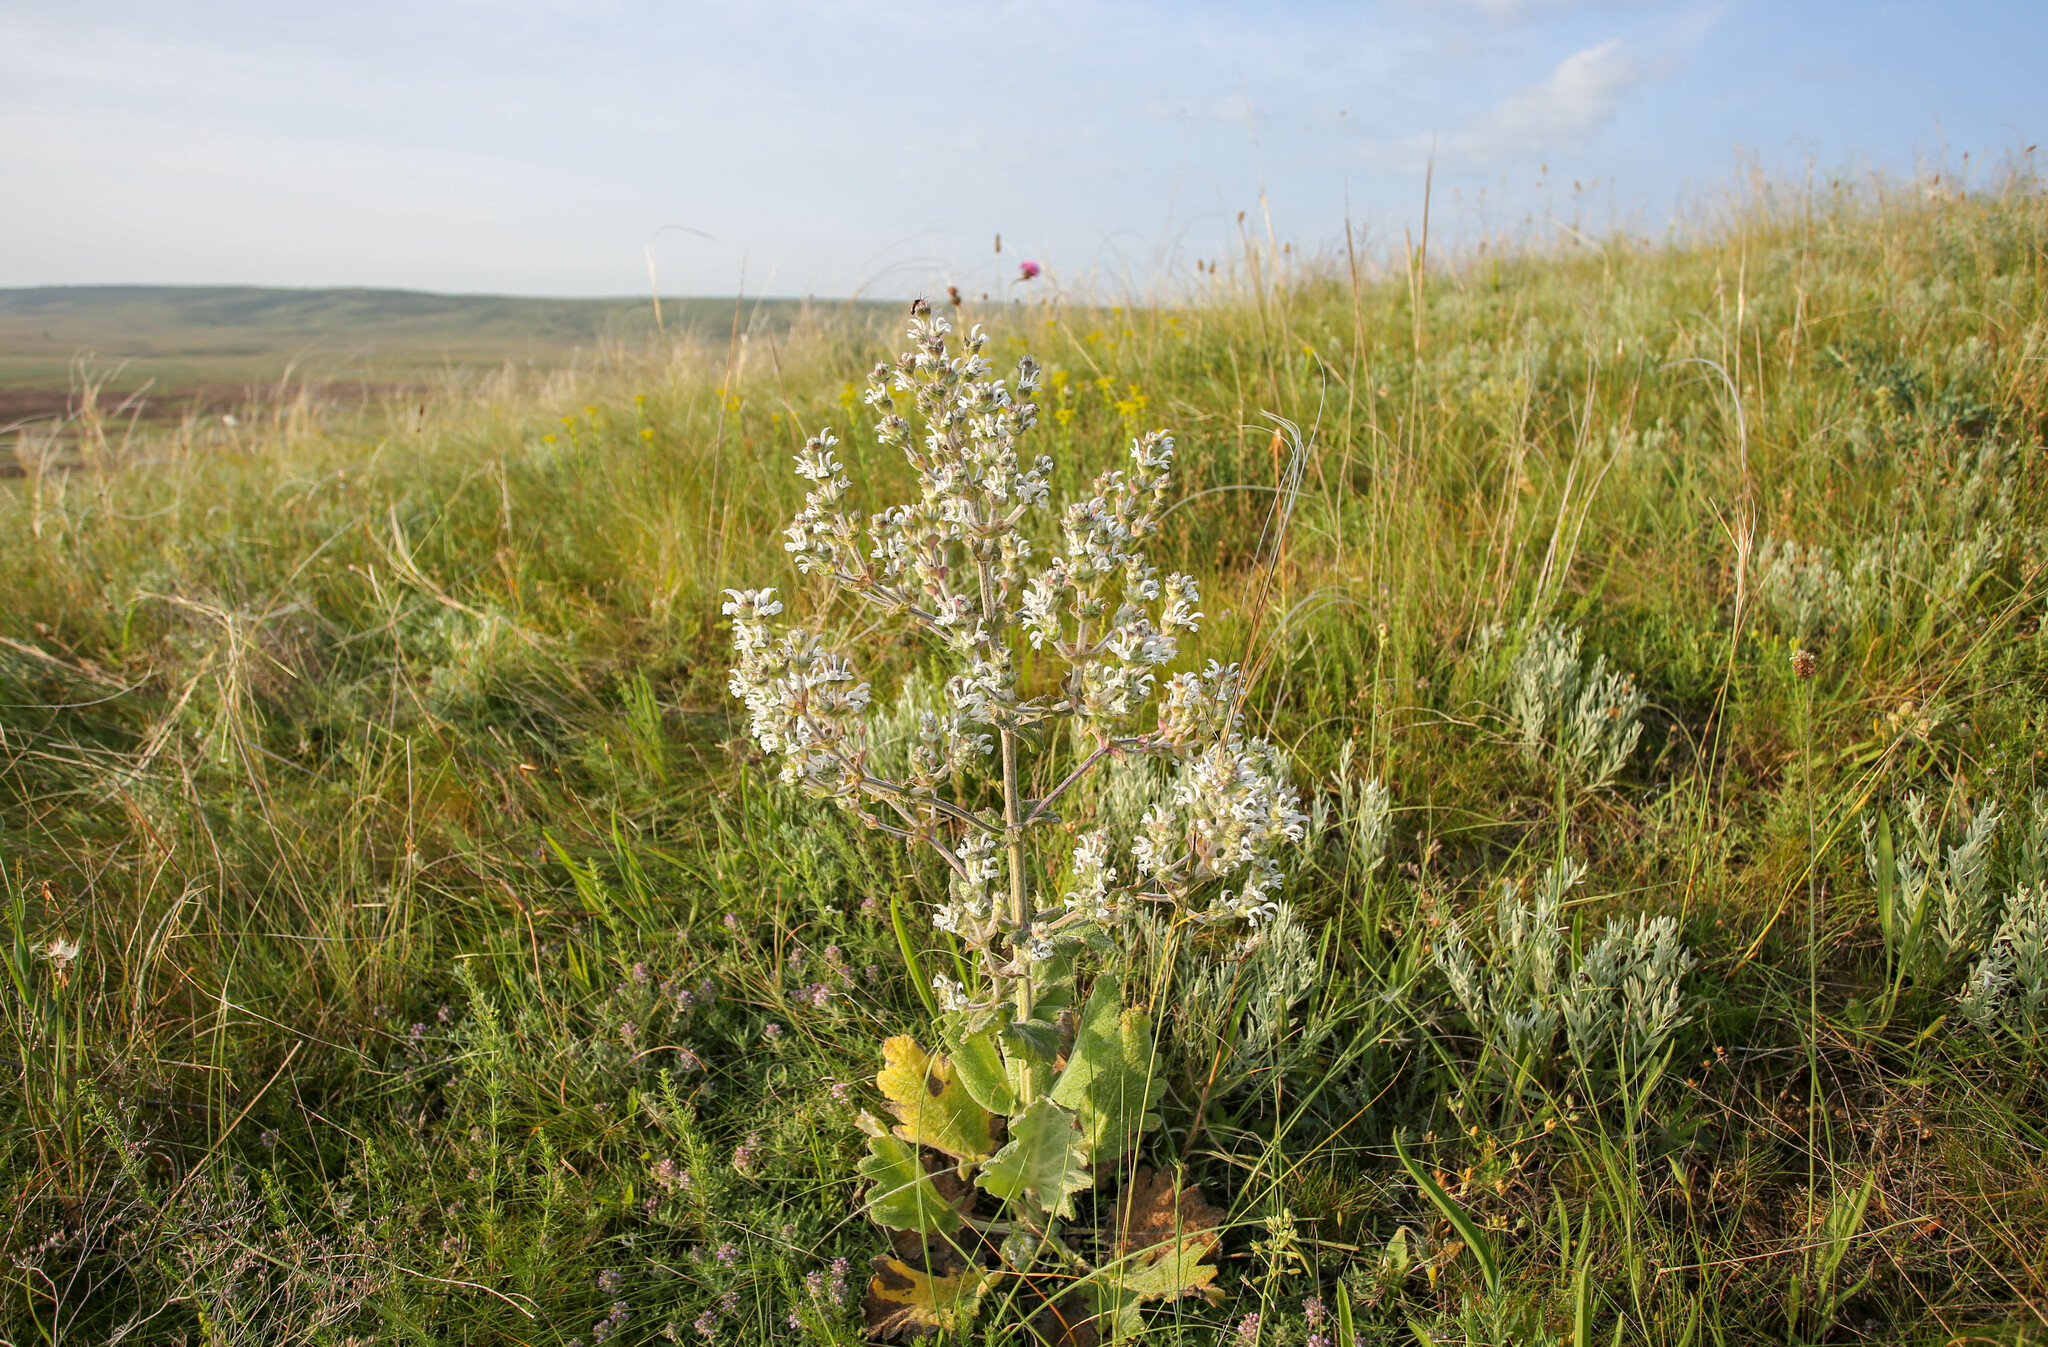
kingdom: Plantae
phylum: Tracheophyta
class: Magnoliopsida
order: Lamiales
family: Lamiaceae
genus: Salvia
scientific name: Salvia aethiopis
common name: Mediterranean sage
